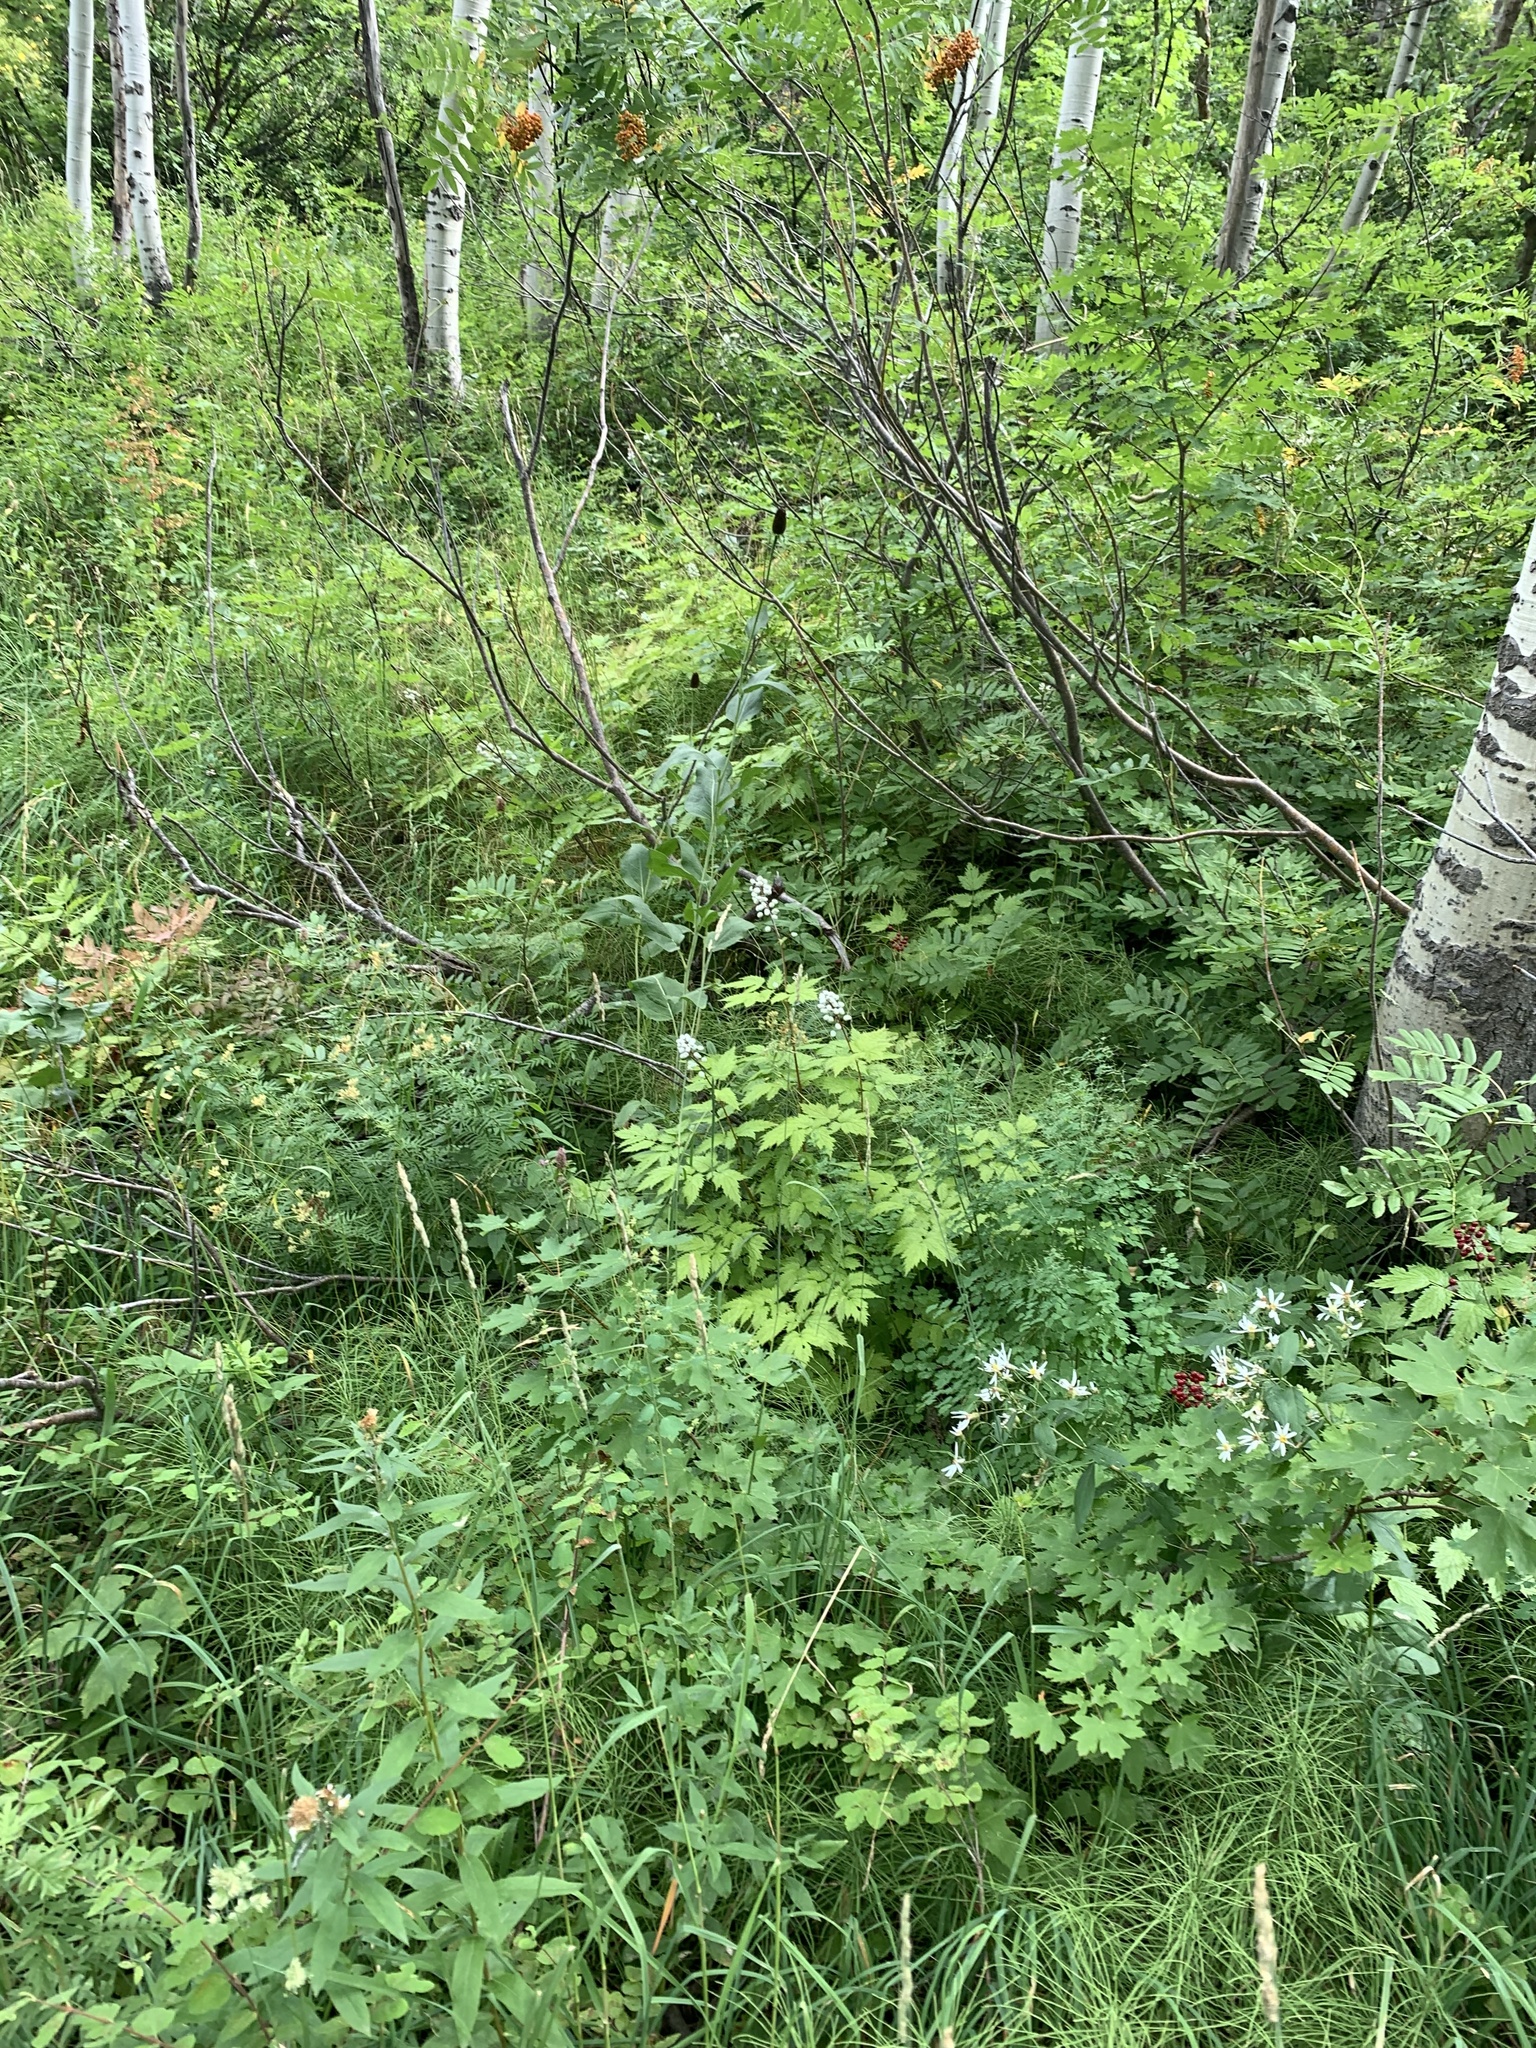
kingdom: Plantae
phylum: Tracheophyta
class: Magnoliopsida
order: Ranunculales
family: Ranunculaceae
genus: Actaea
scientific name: Actaea rubra
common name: Red baneberry
